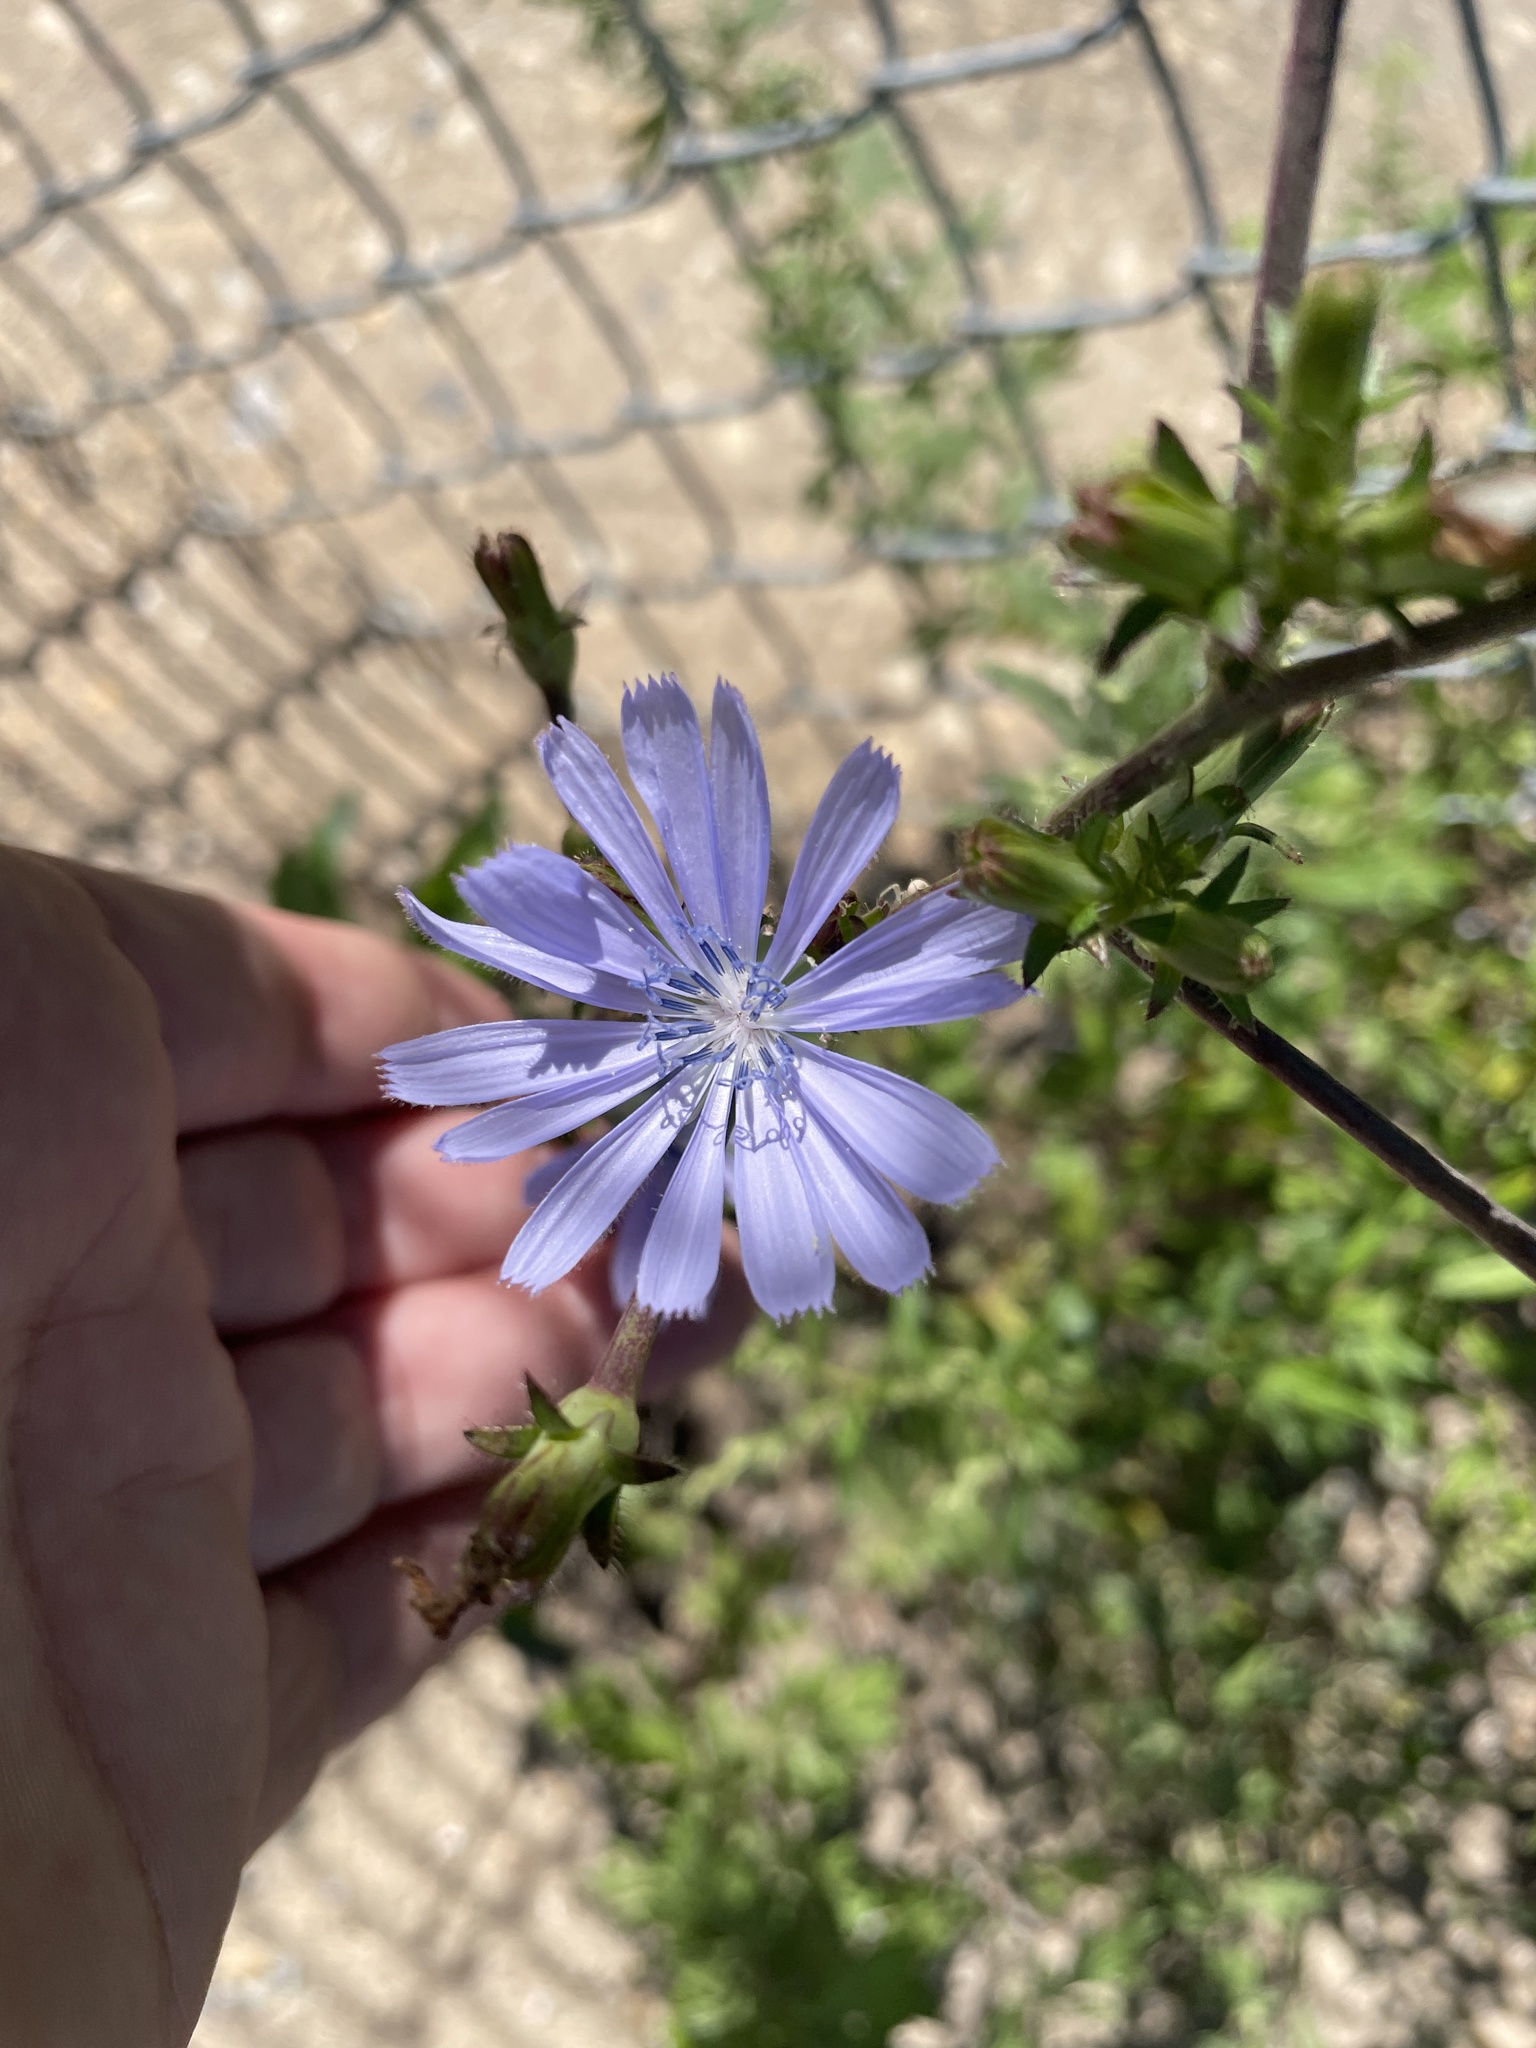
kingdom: Plantae
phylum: Tracheophyta
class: Magnoliopsida
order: Asterales
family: Asteraceae
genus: Cichorium
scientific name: Cichorium intybus
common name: Chicory
